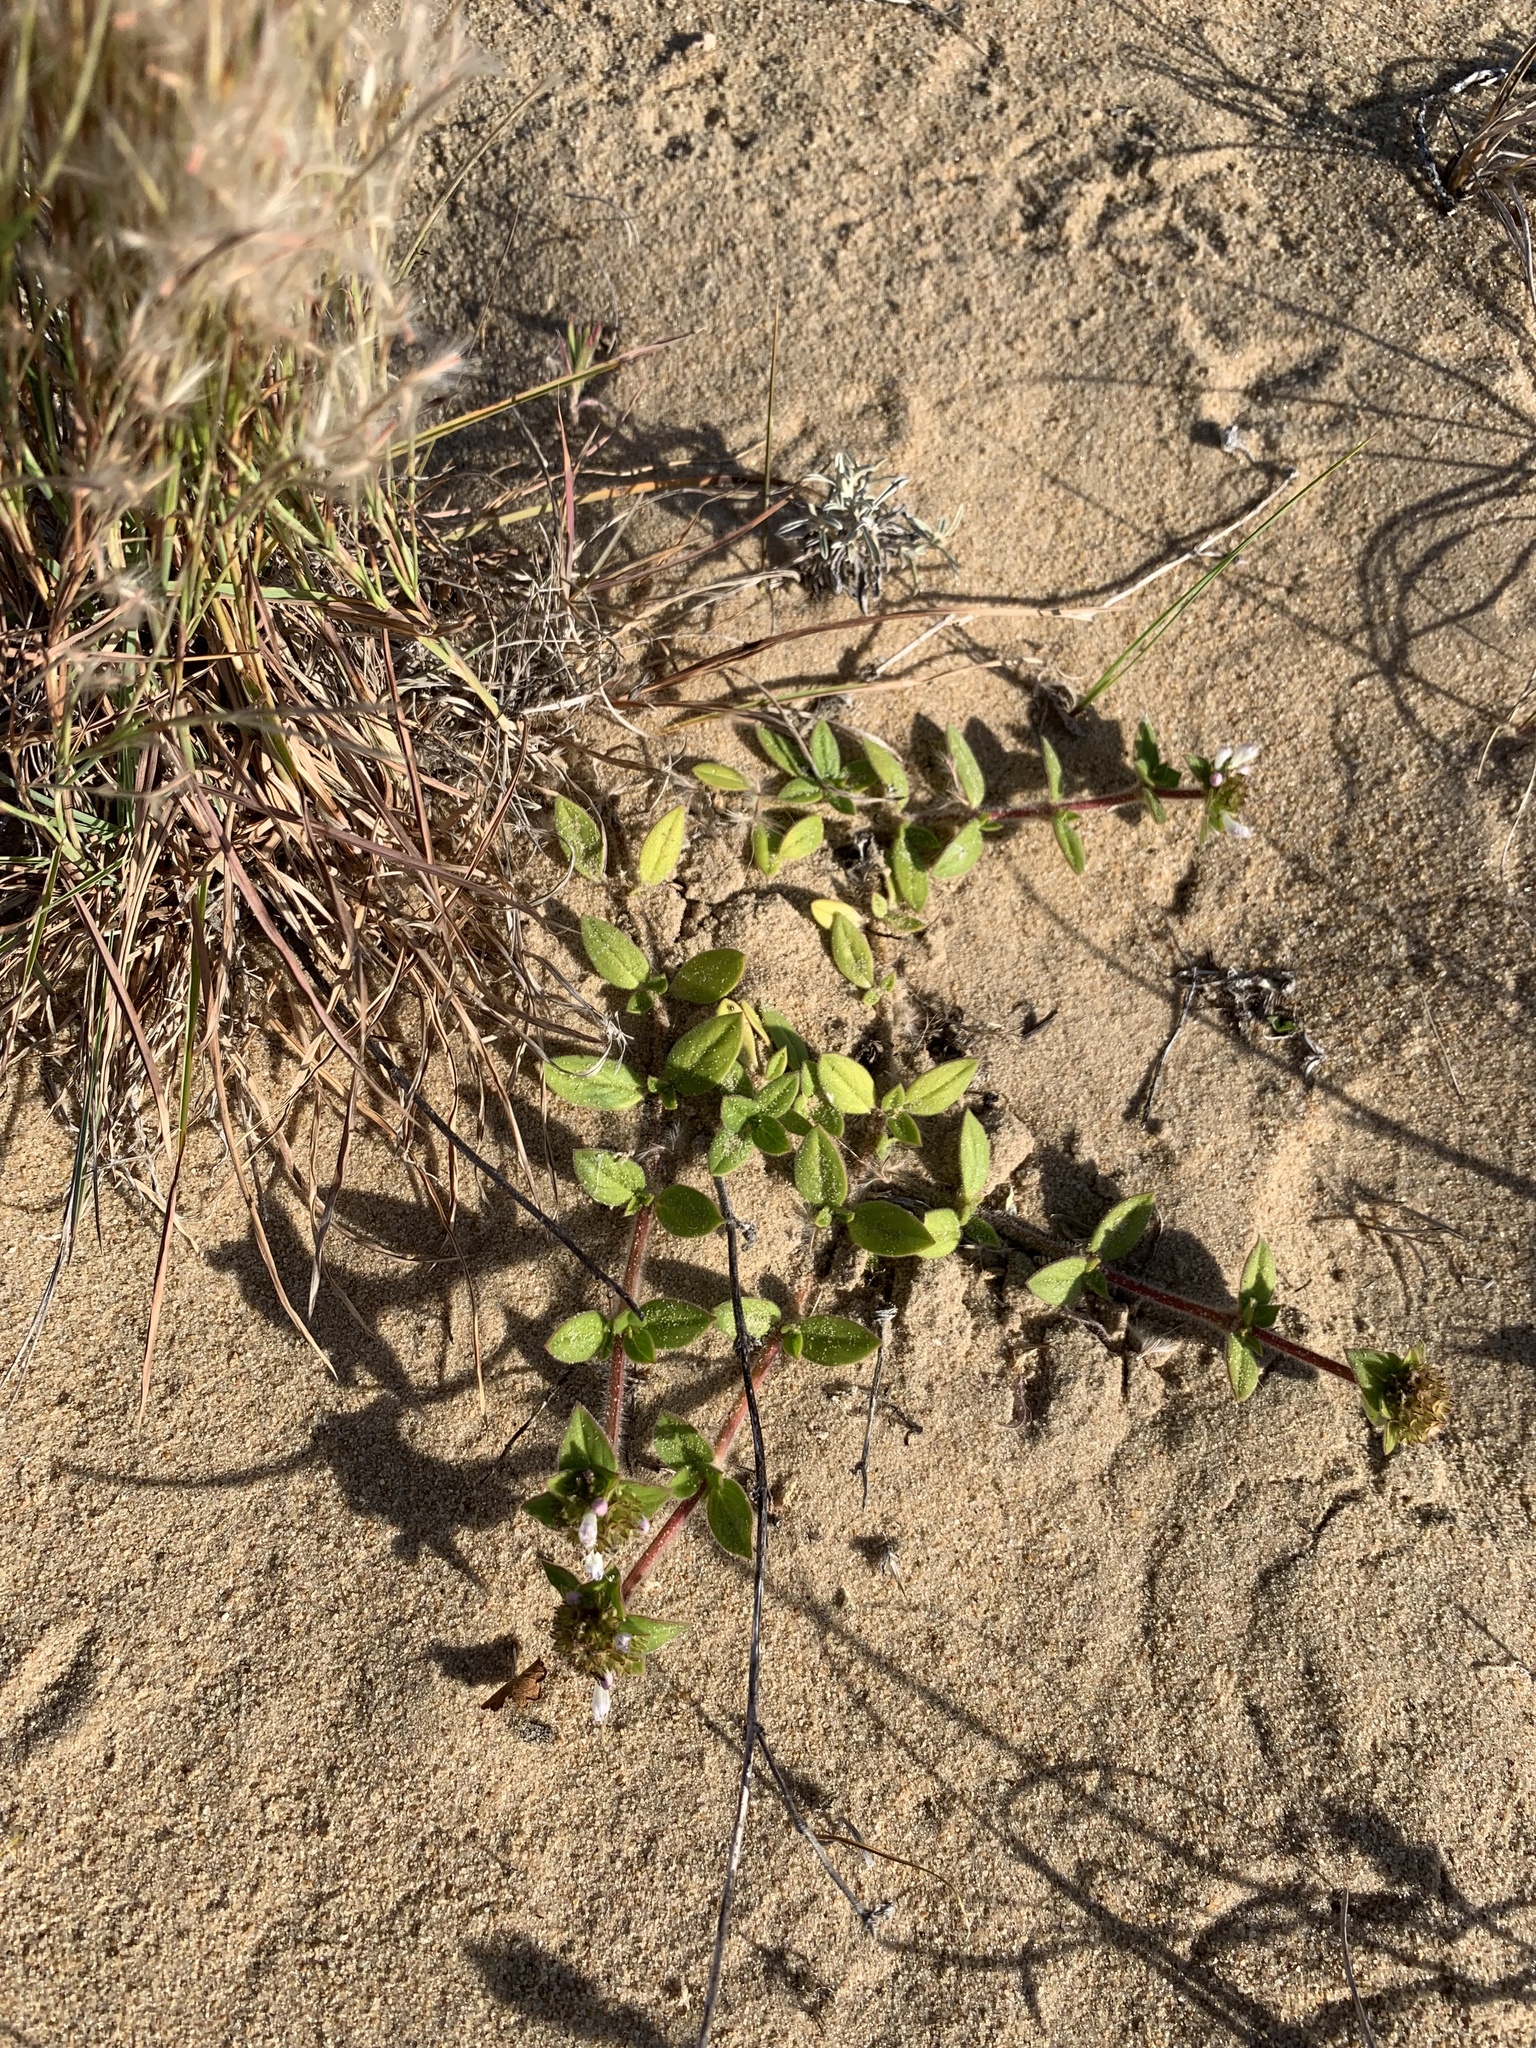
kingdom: Plantae
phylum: Tracheophyta
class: Magnoliopsida
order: Gentianales
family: Rubiaceae
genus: Richardia
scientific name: Richardia brasiliensis
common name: Tropical mexican clover
